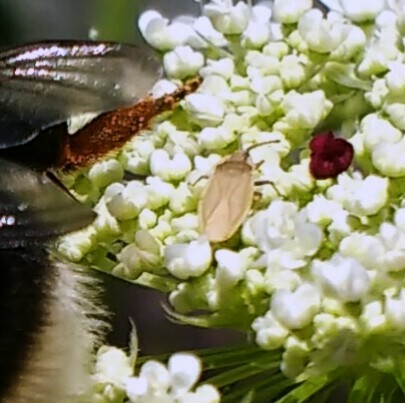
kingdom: Animalia
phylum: Arthropoda
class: Insecta
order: Hemiptera
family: Tingidae
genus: Tingis
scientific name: Tingis auriculata
